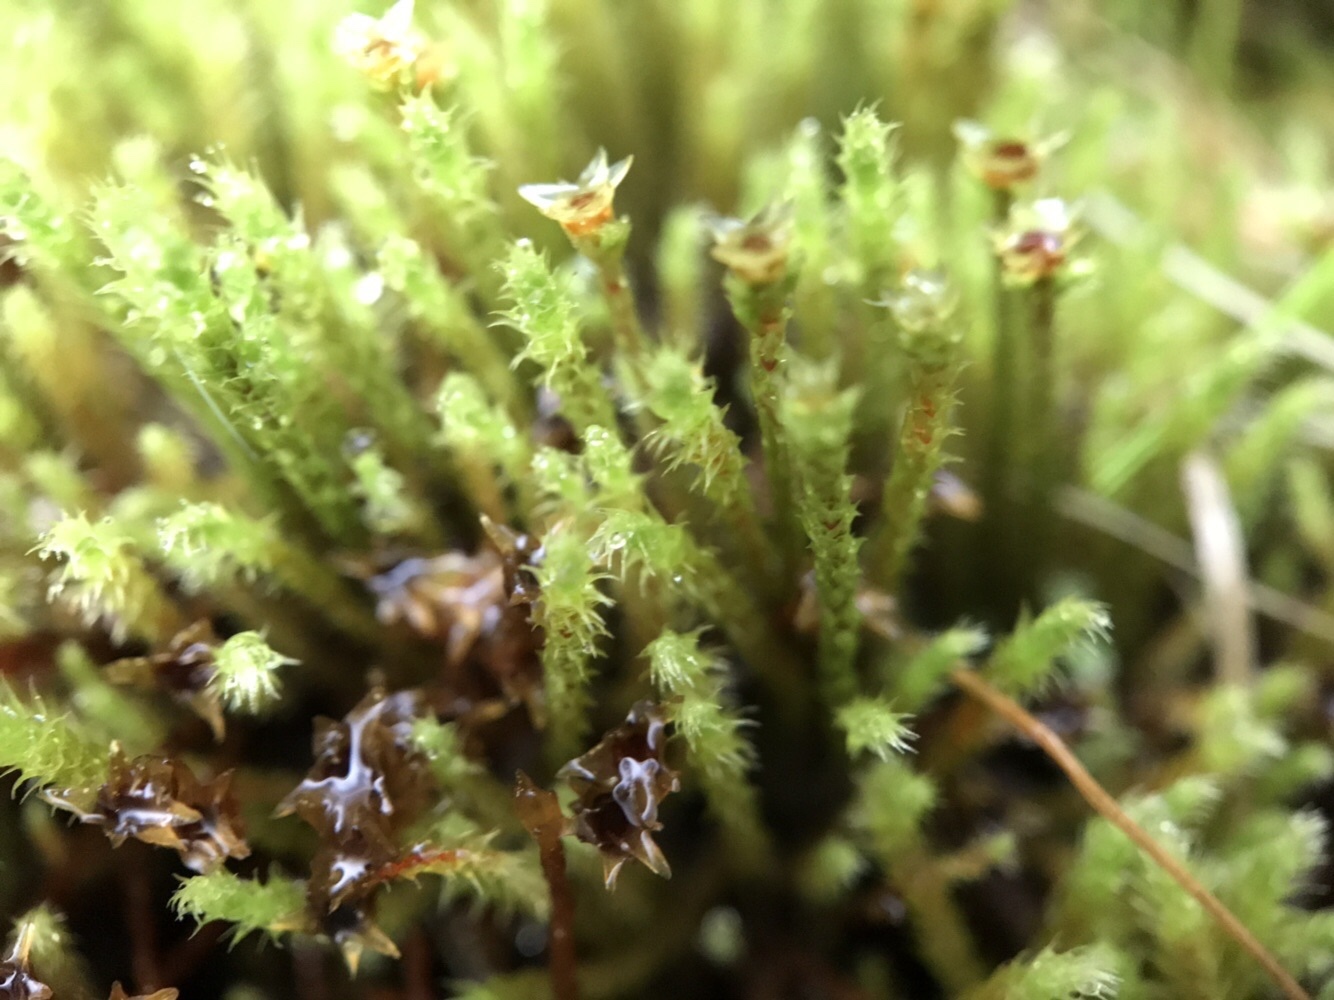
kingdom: Plantae
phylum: Bryophyta
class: Bryopsida
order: Bartramiales
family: Bartramiaceae
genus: Philonotis
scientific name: Philonotis fontana
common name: Fountain apple-moss
